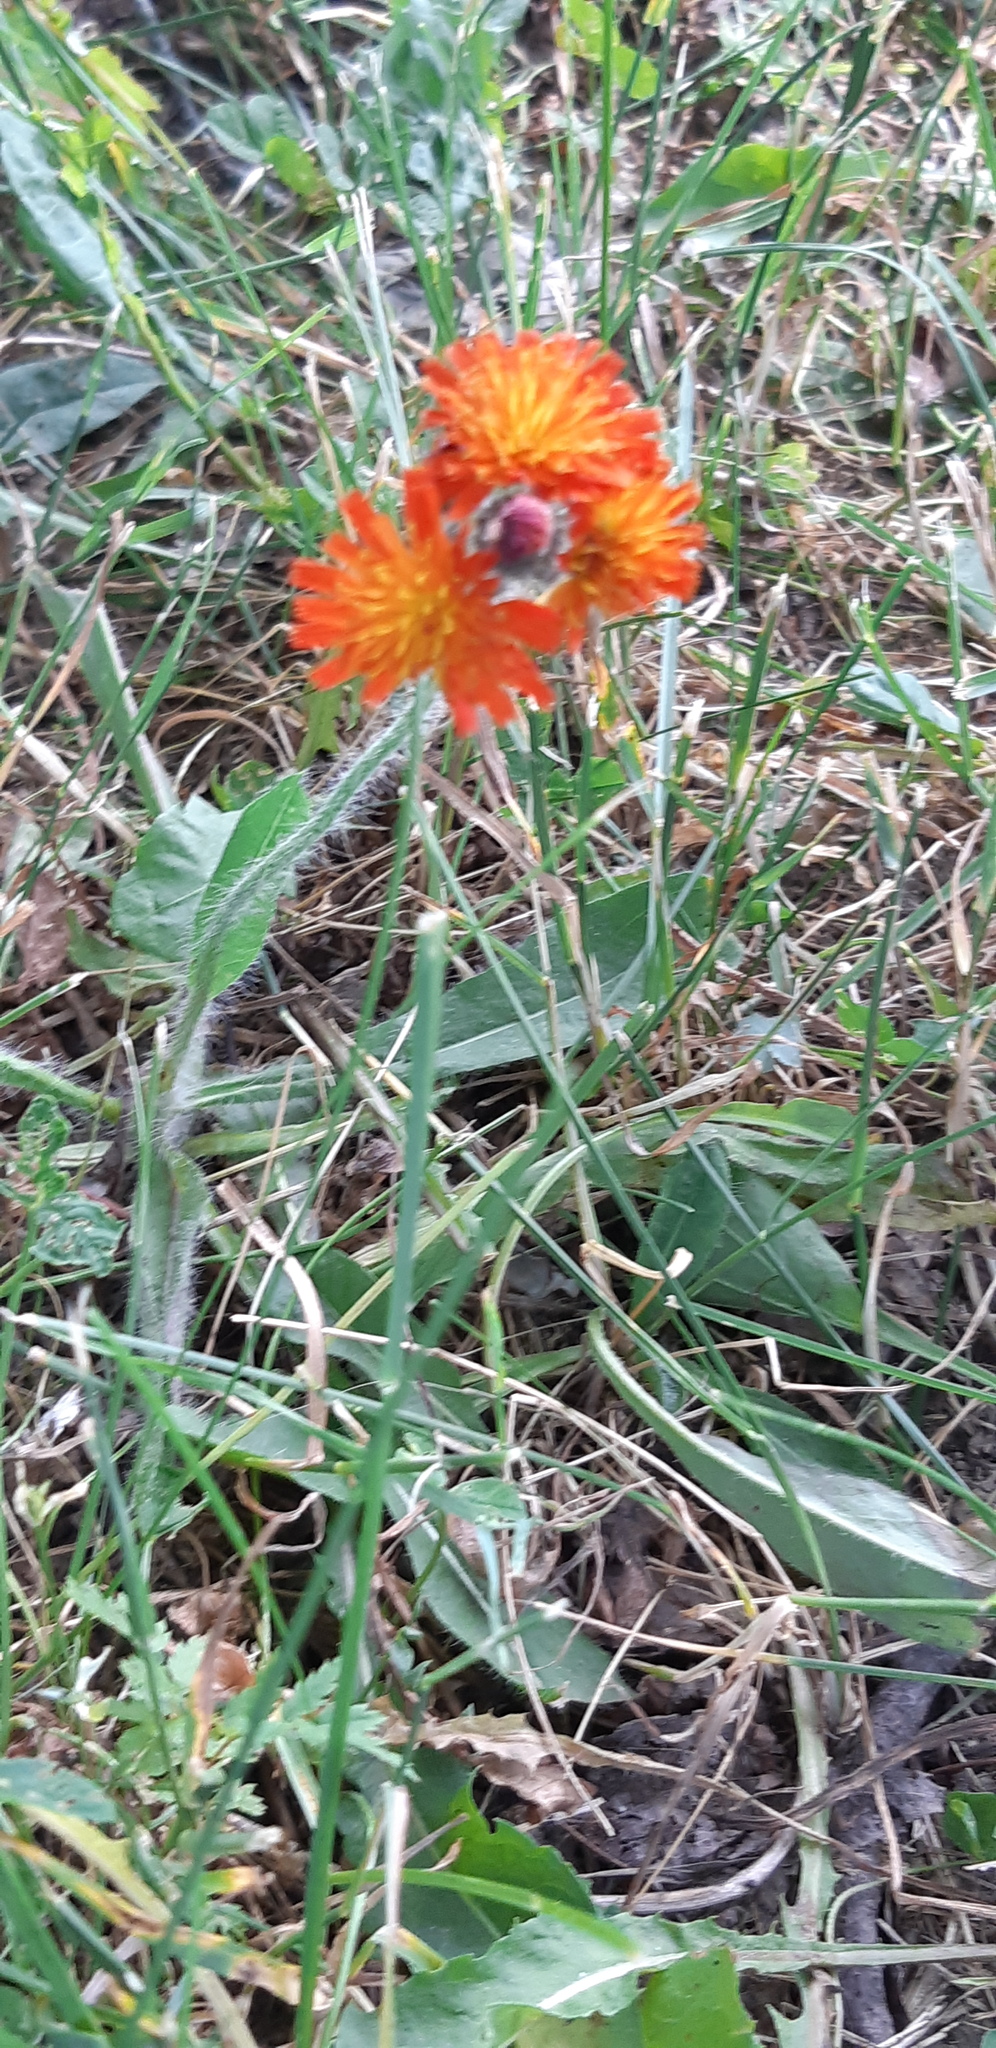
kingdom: Plantae
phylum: Tracheophyta
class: Magnoliopsida
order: Asterales
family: Asteraceae
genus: Pilosella
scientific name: Pilosella aurantiaca
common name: Fox-and-cubs
